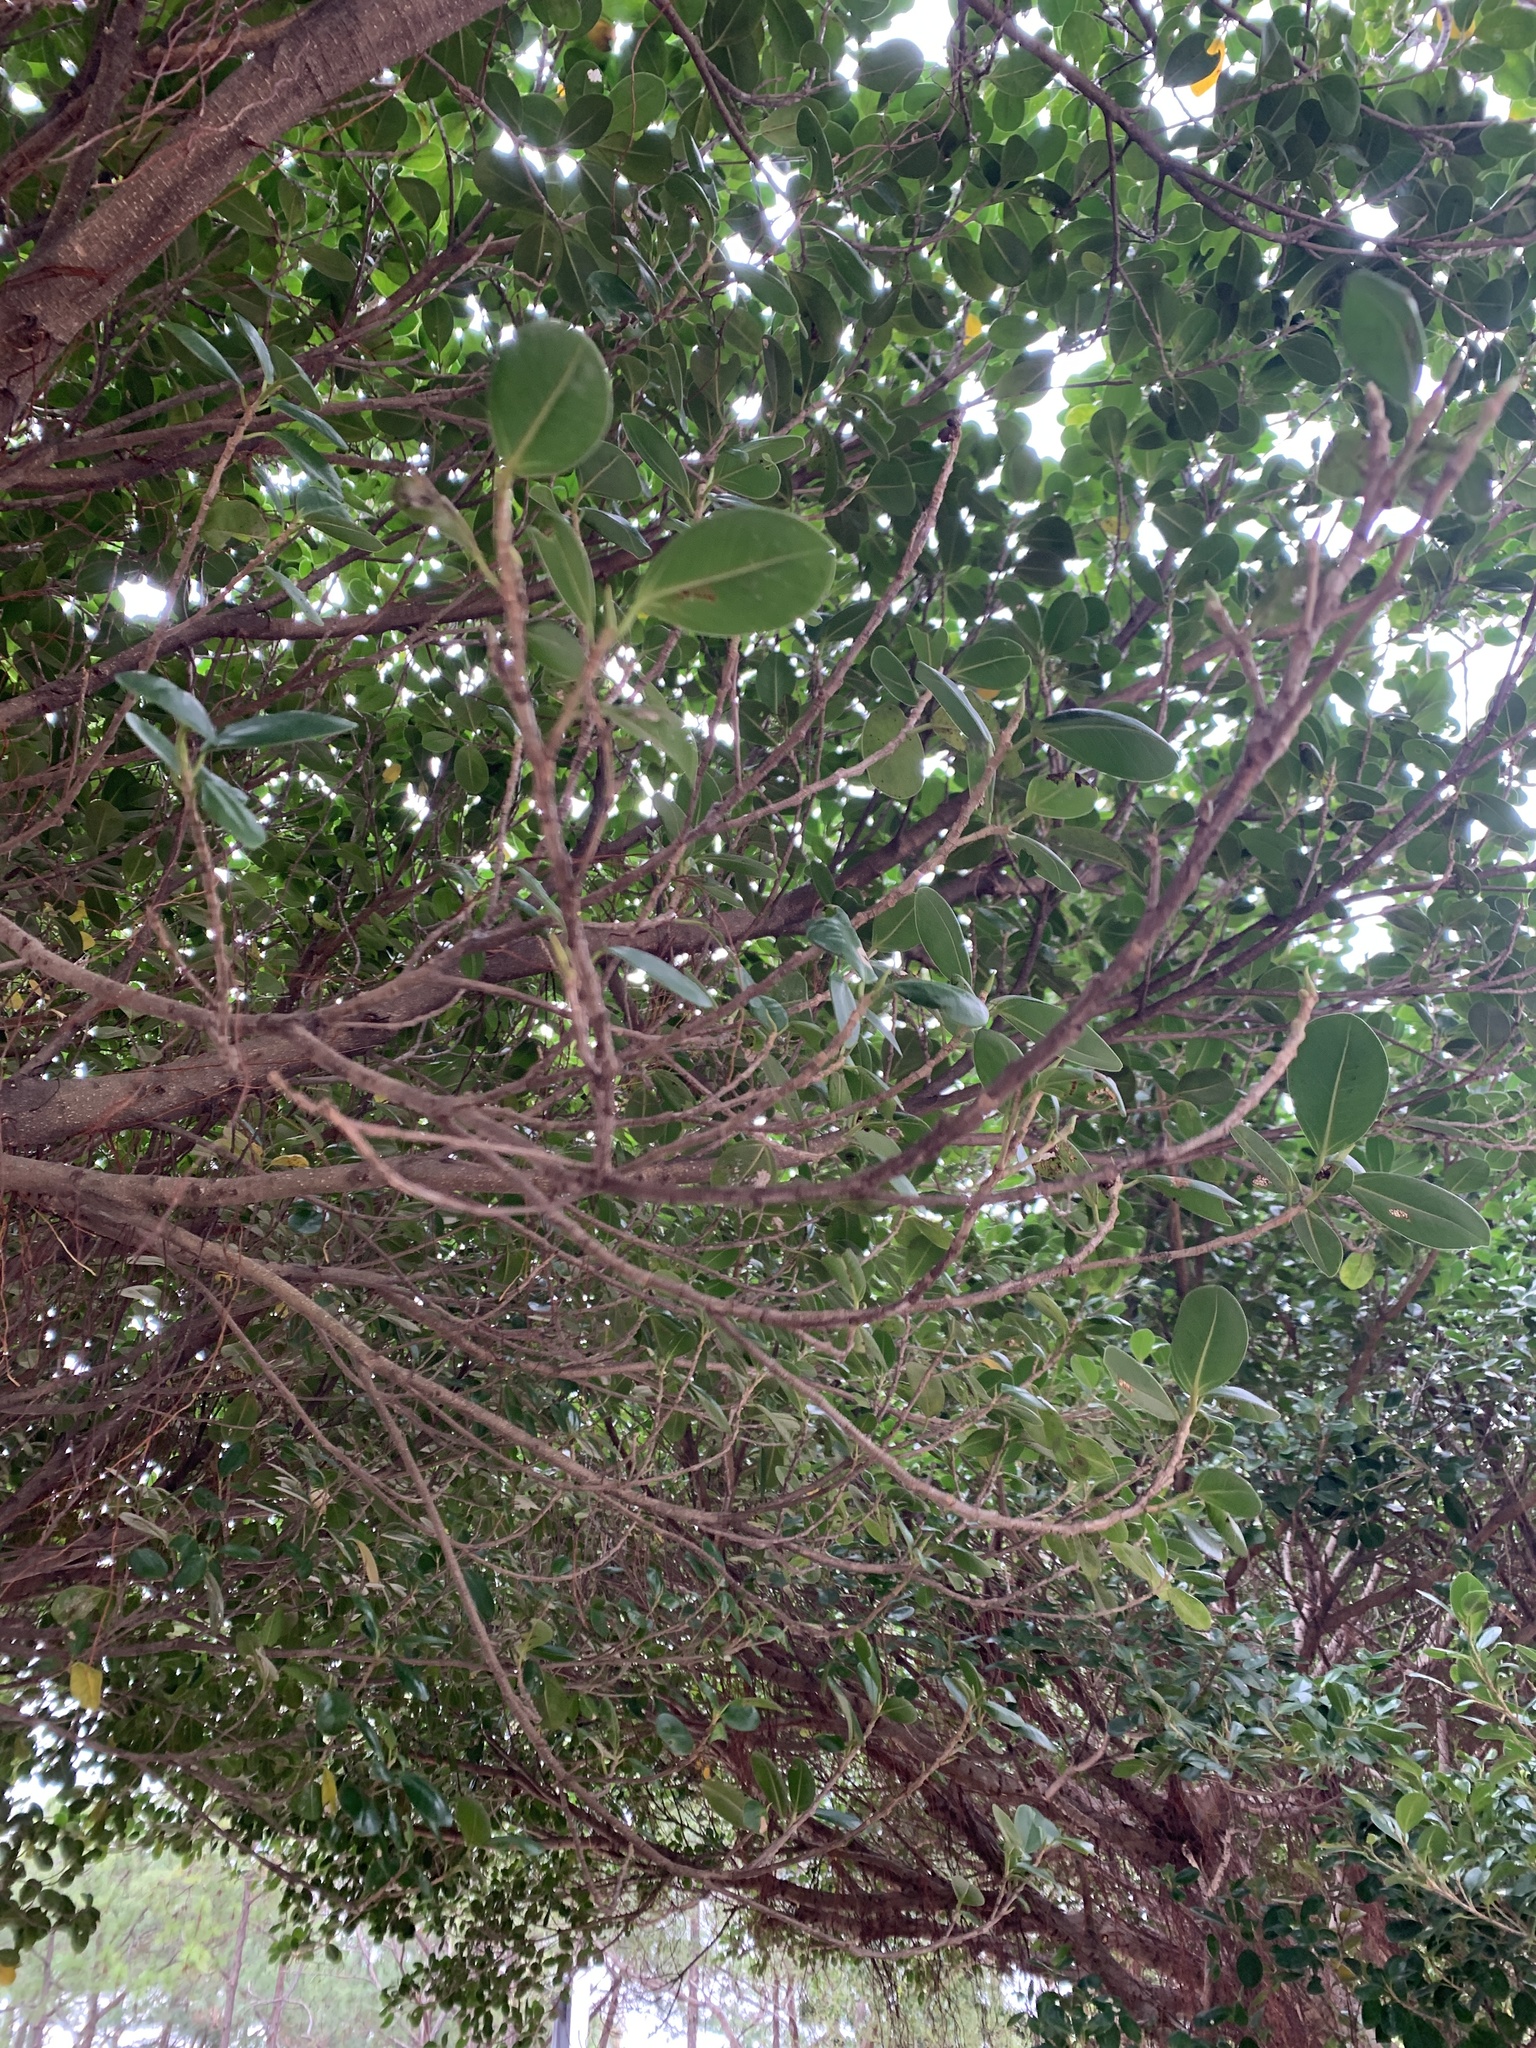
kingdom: Plantae
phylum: Tracheophyta
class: Magnoliopsida
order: Rosales
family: Moraceae
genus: Ficus
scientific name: Ficus microcarpa
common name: Chinese banyan
